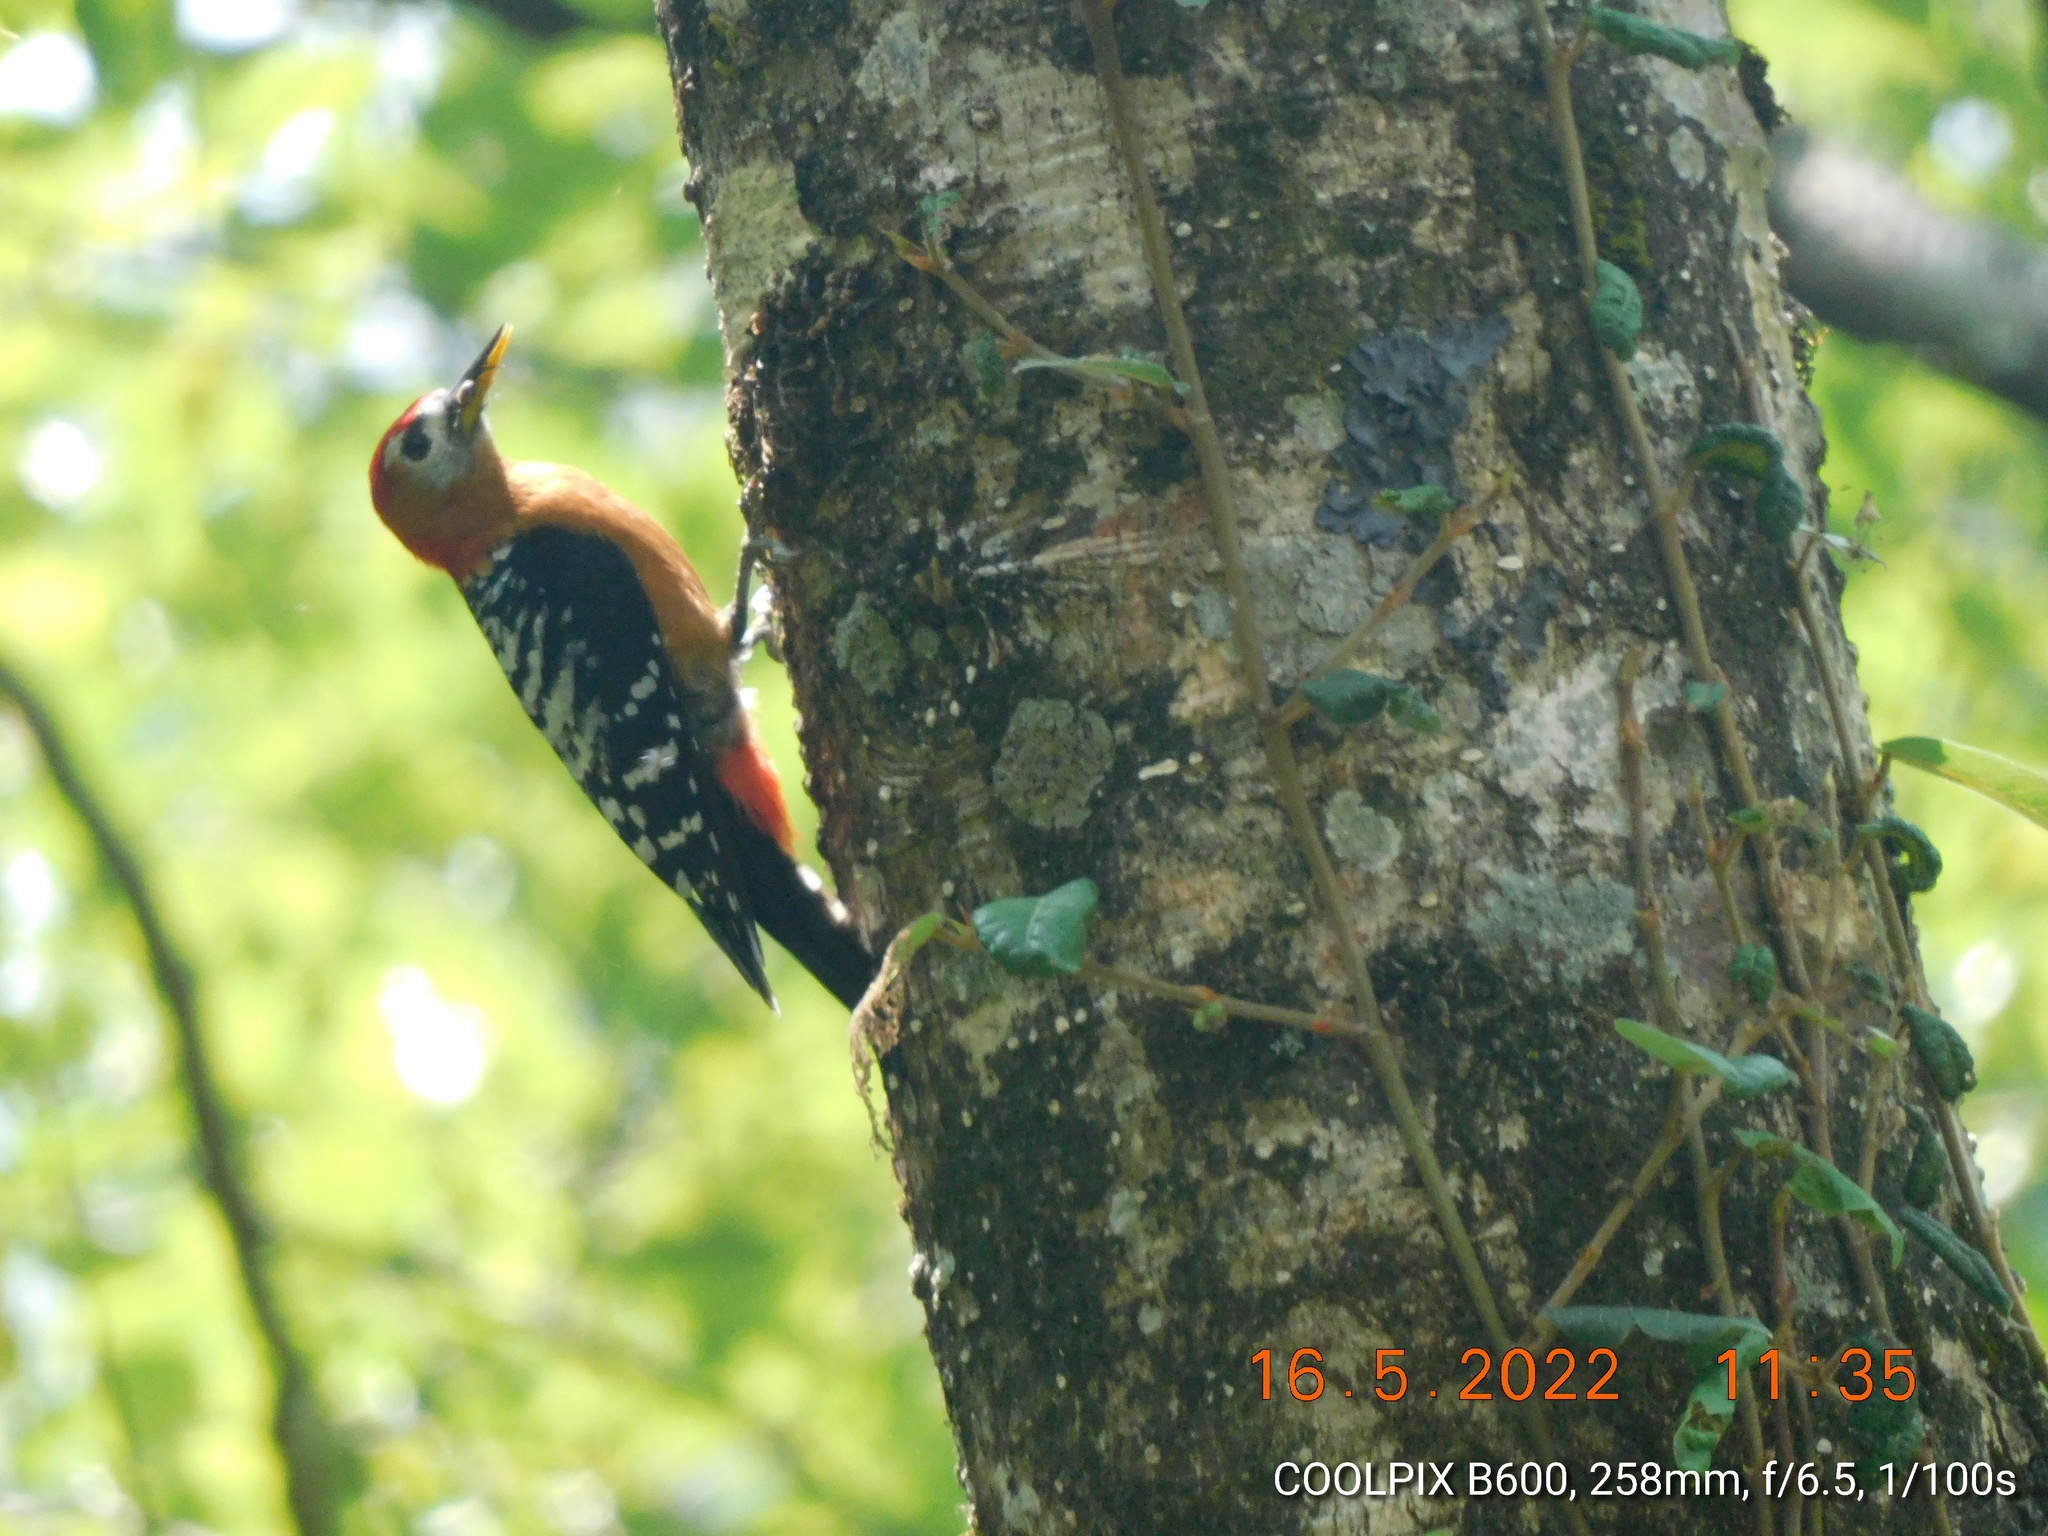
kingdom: Animalia
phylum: Chordata
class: Aves
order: Piciformes
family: Picidae
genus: Dendrocopos
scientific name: Dendrocopos hyperythrus
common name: Rufous-bellied woodpecker
